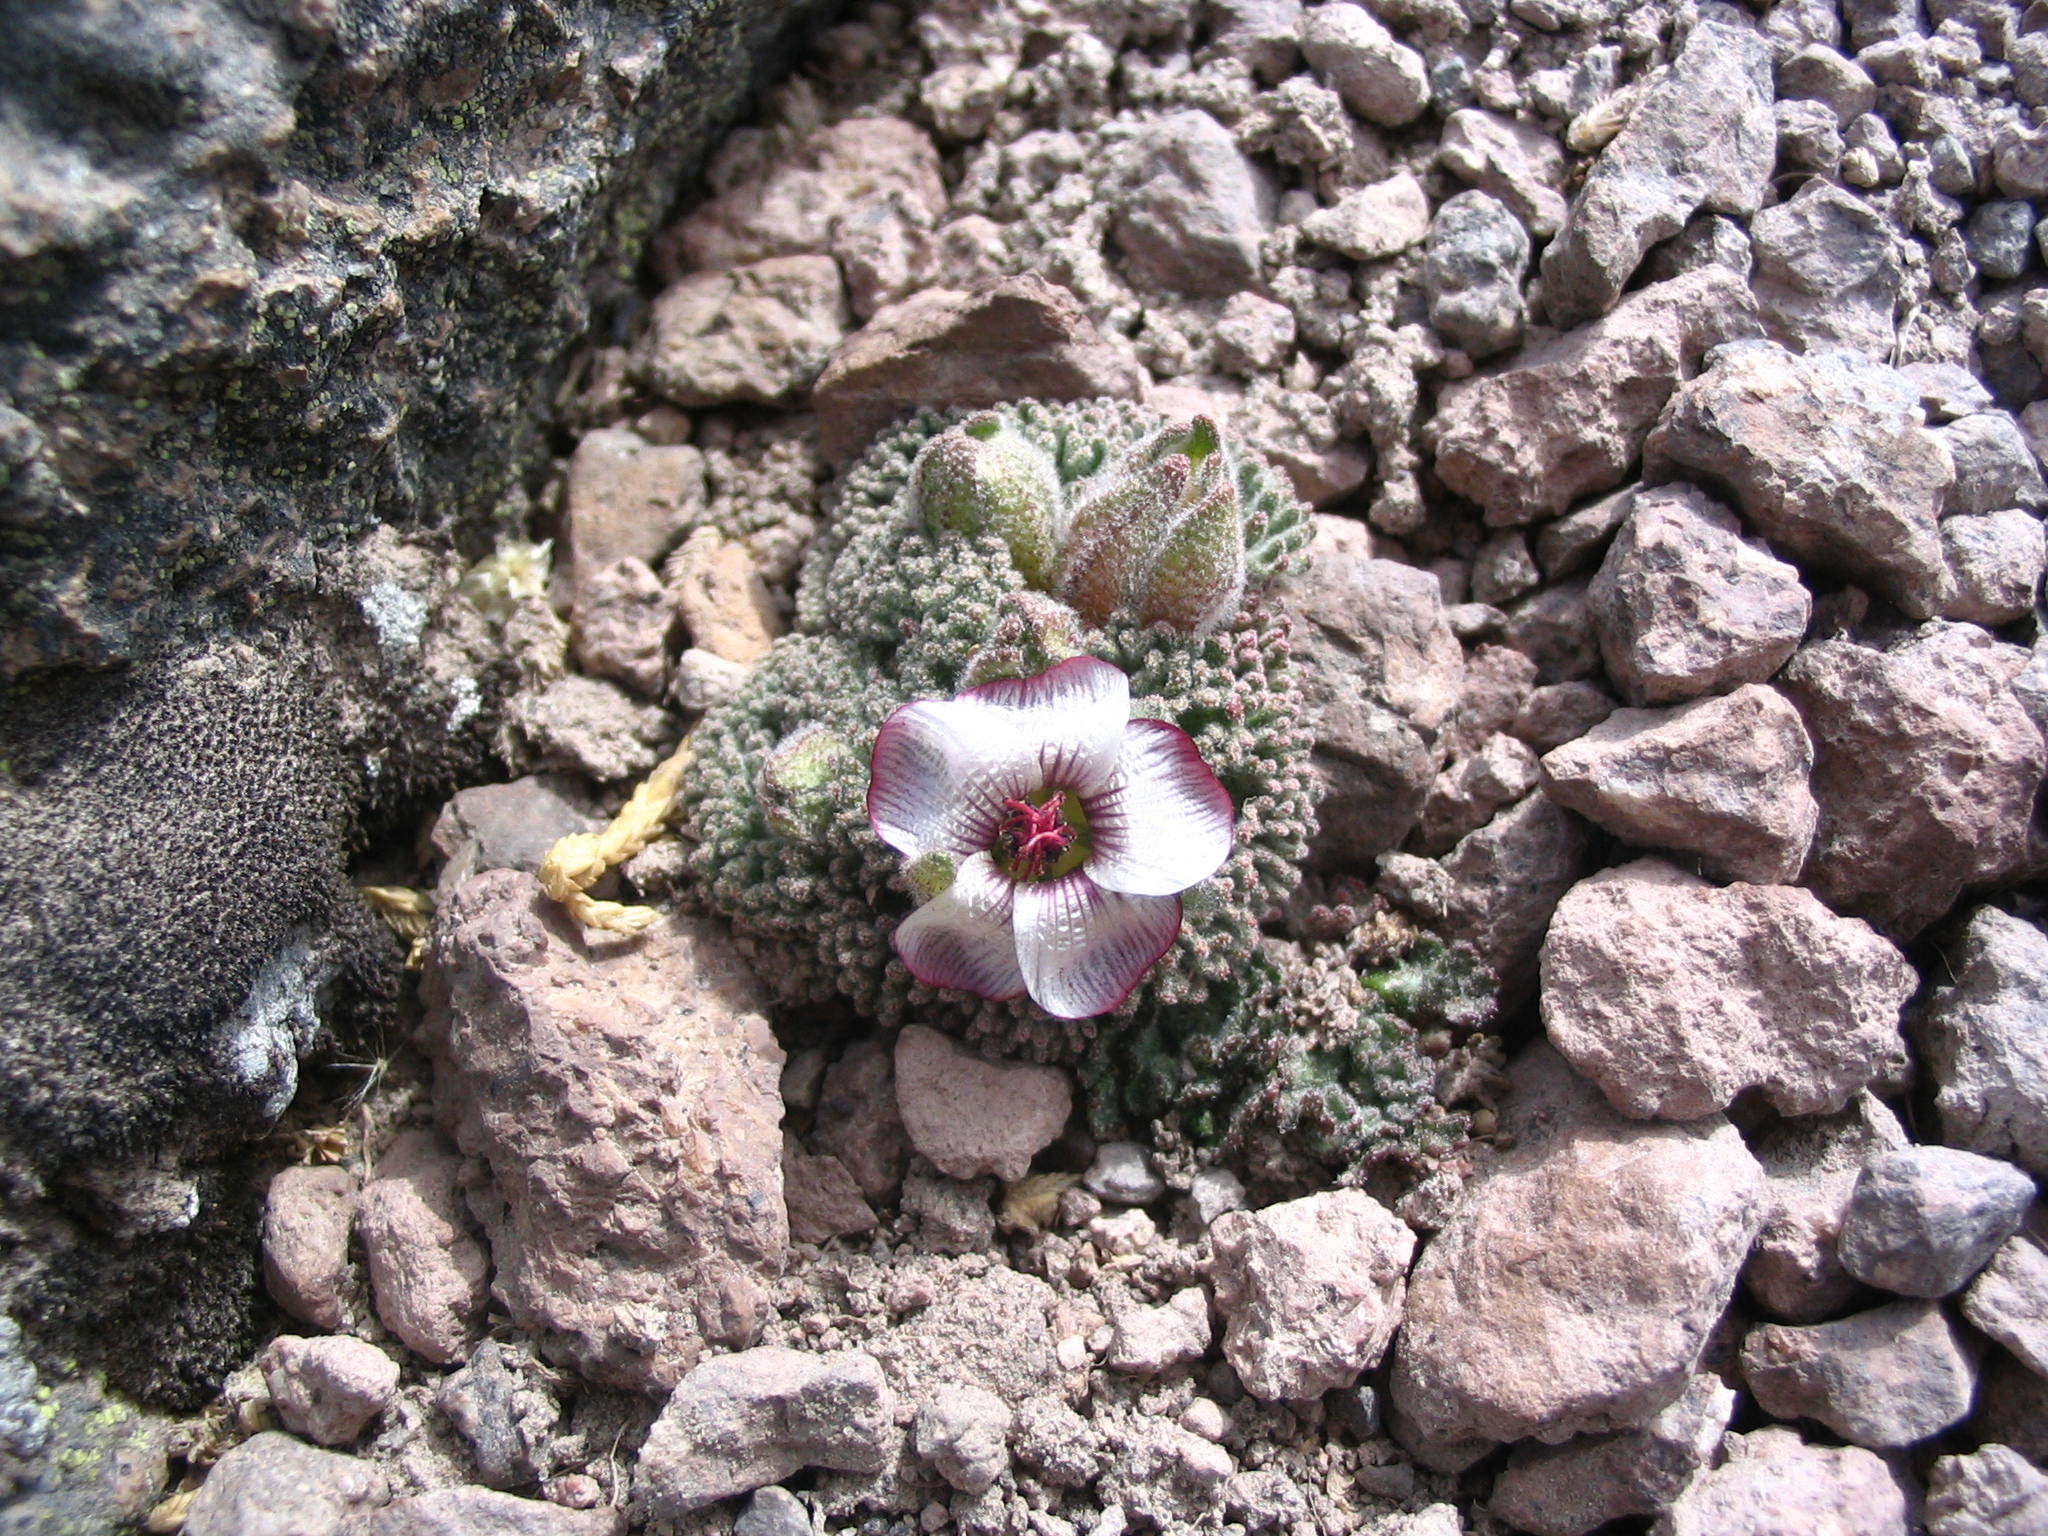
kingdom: Plantae
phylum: Tracheophyta
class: Magnoliopsida
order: Malvales
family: Malvaceae
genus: Nototriche
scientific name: Nototriche pellicea
